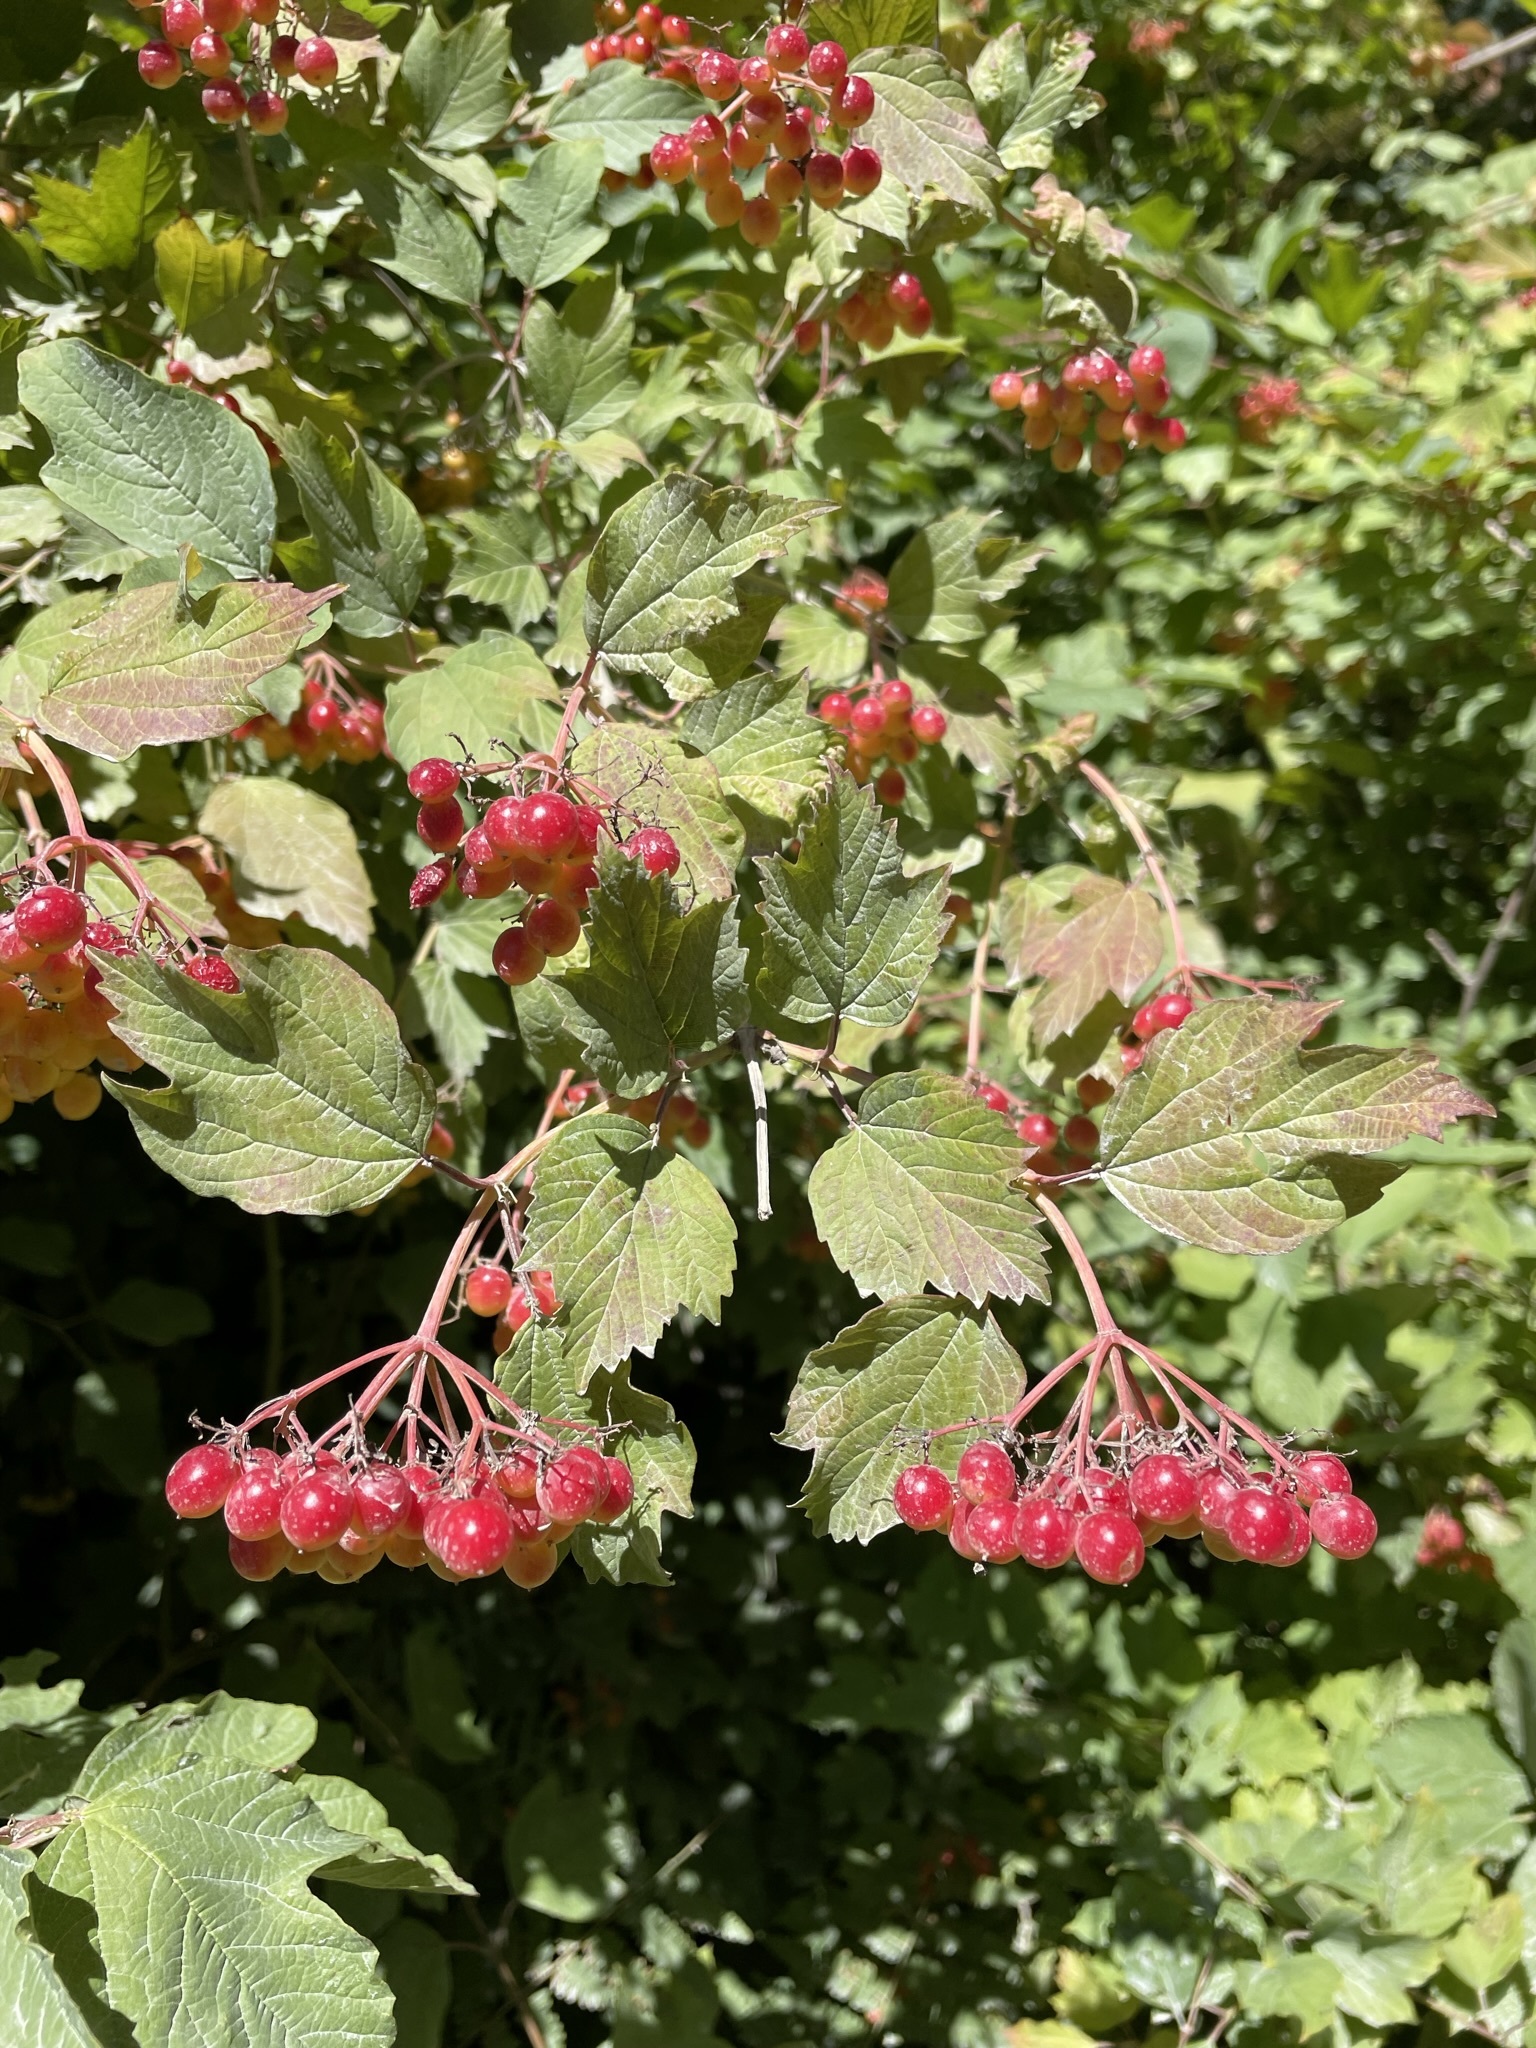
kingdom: Plantae
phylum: Tracheophyta
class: Magnoliopsida
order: Dipsacales
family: Viburnaceae
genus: Viburnum
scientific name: Viburnum opulus
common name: Guelder-rose
